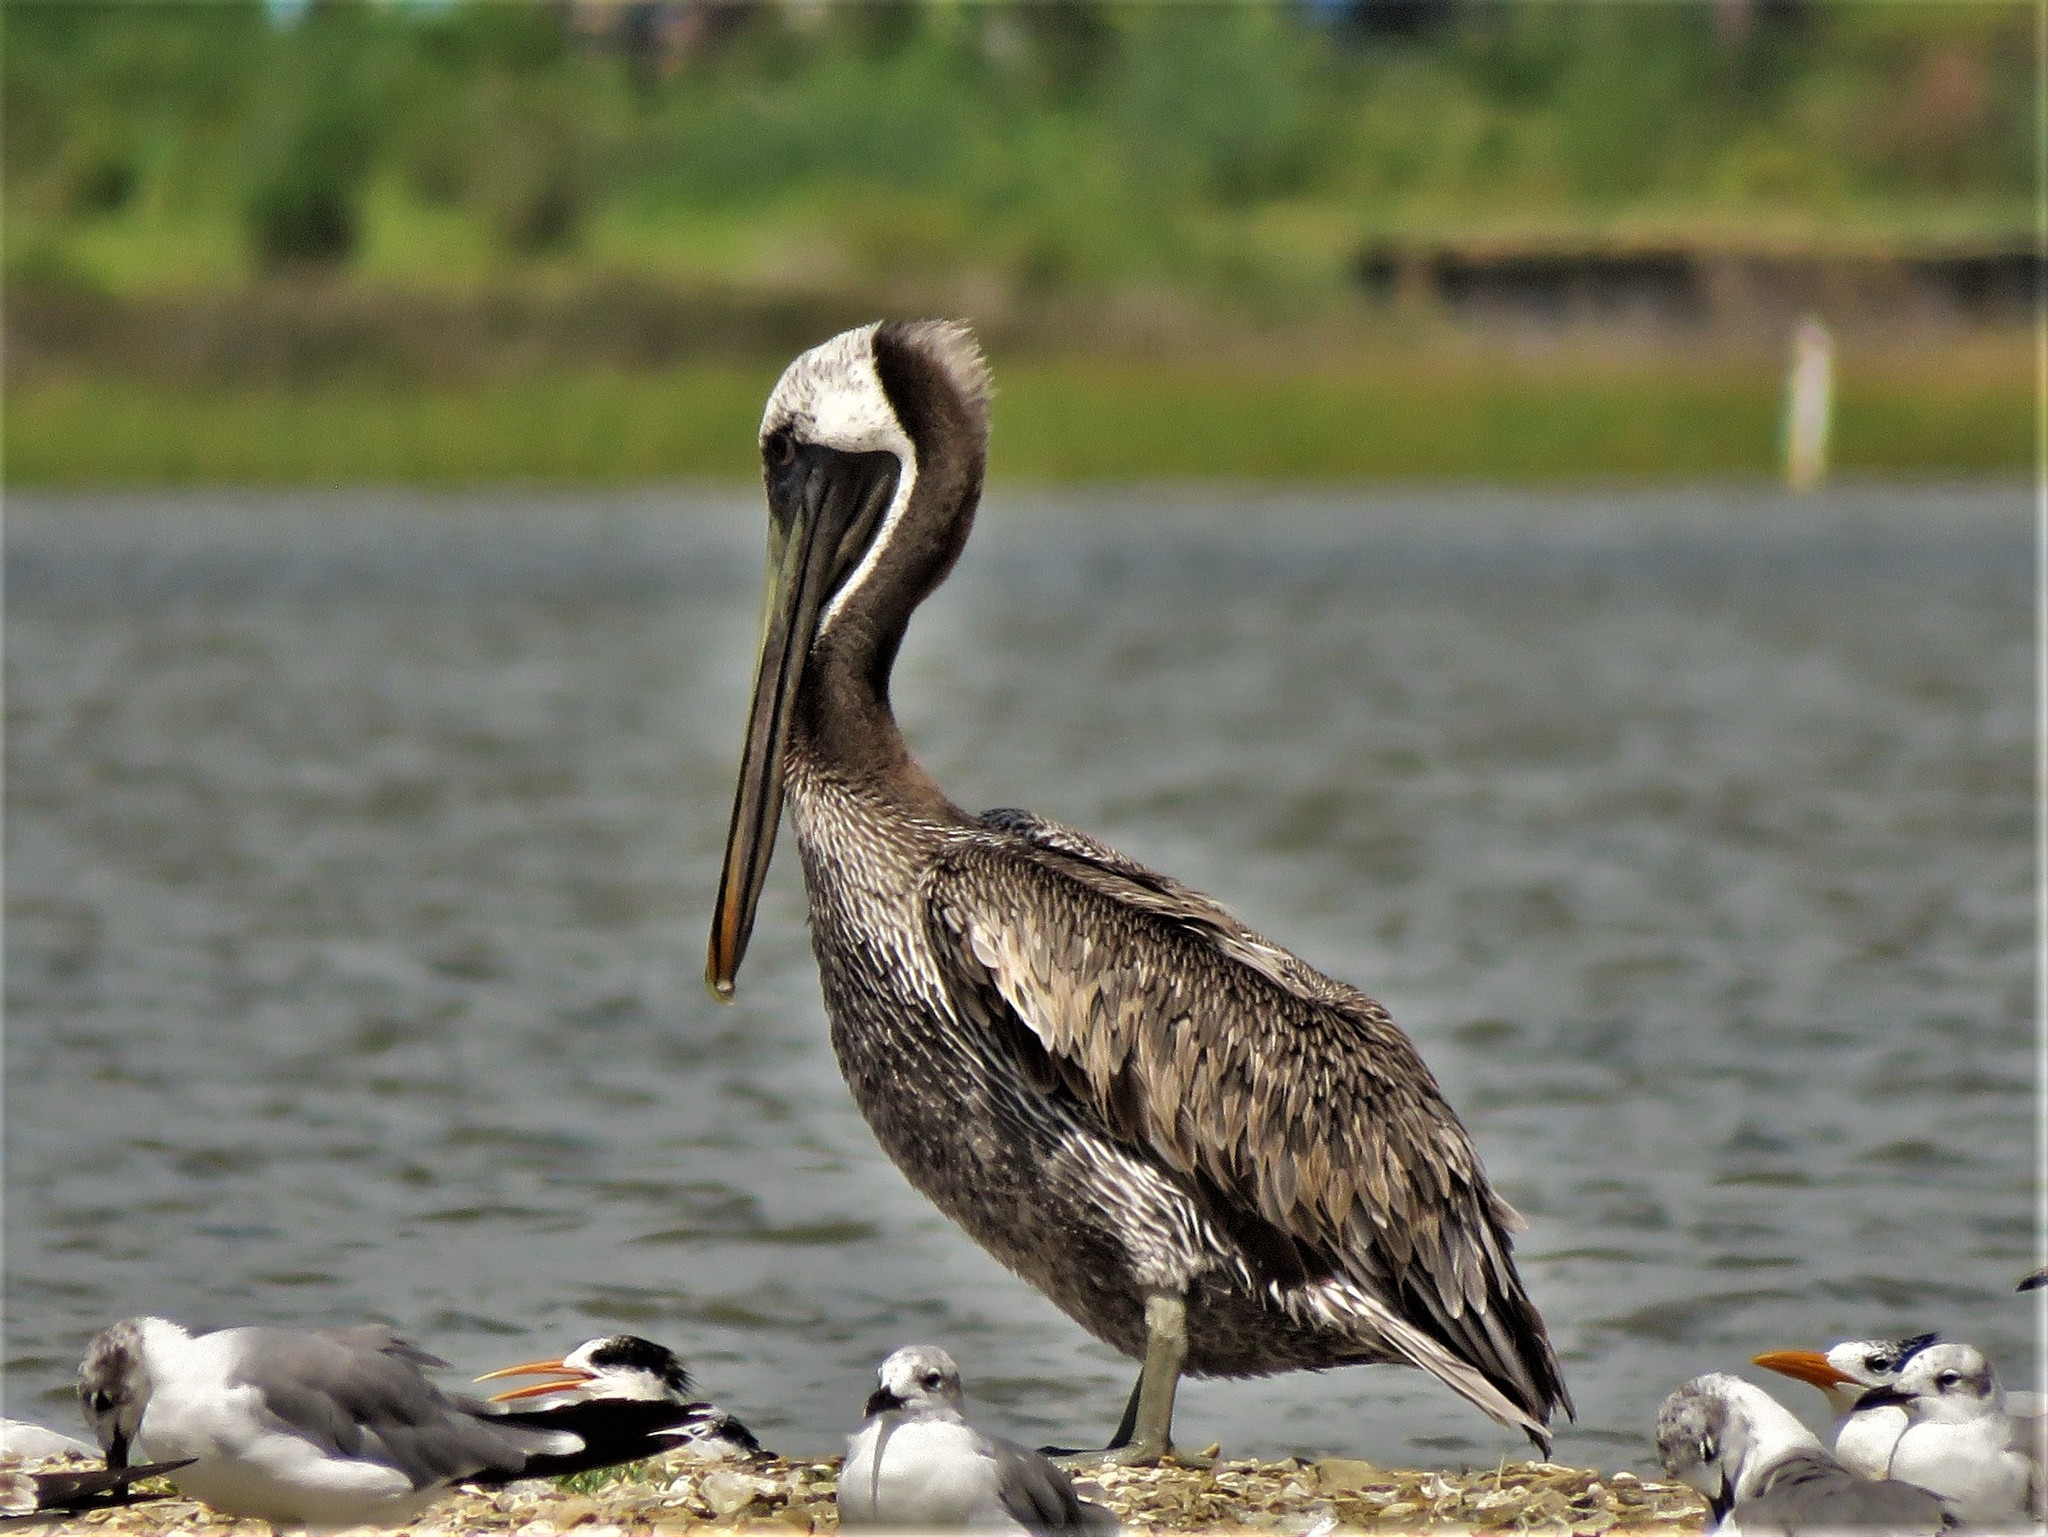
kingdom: Animalia
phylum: Chordata
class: Aves
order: Pelecaniformes
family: Pelecanidae
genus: Pelecanus
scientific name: Pelecanus occidentalis
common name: Brown pelican
